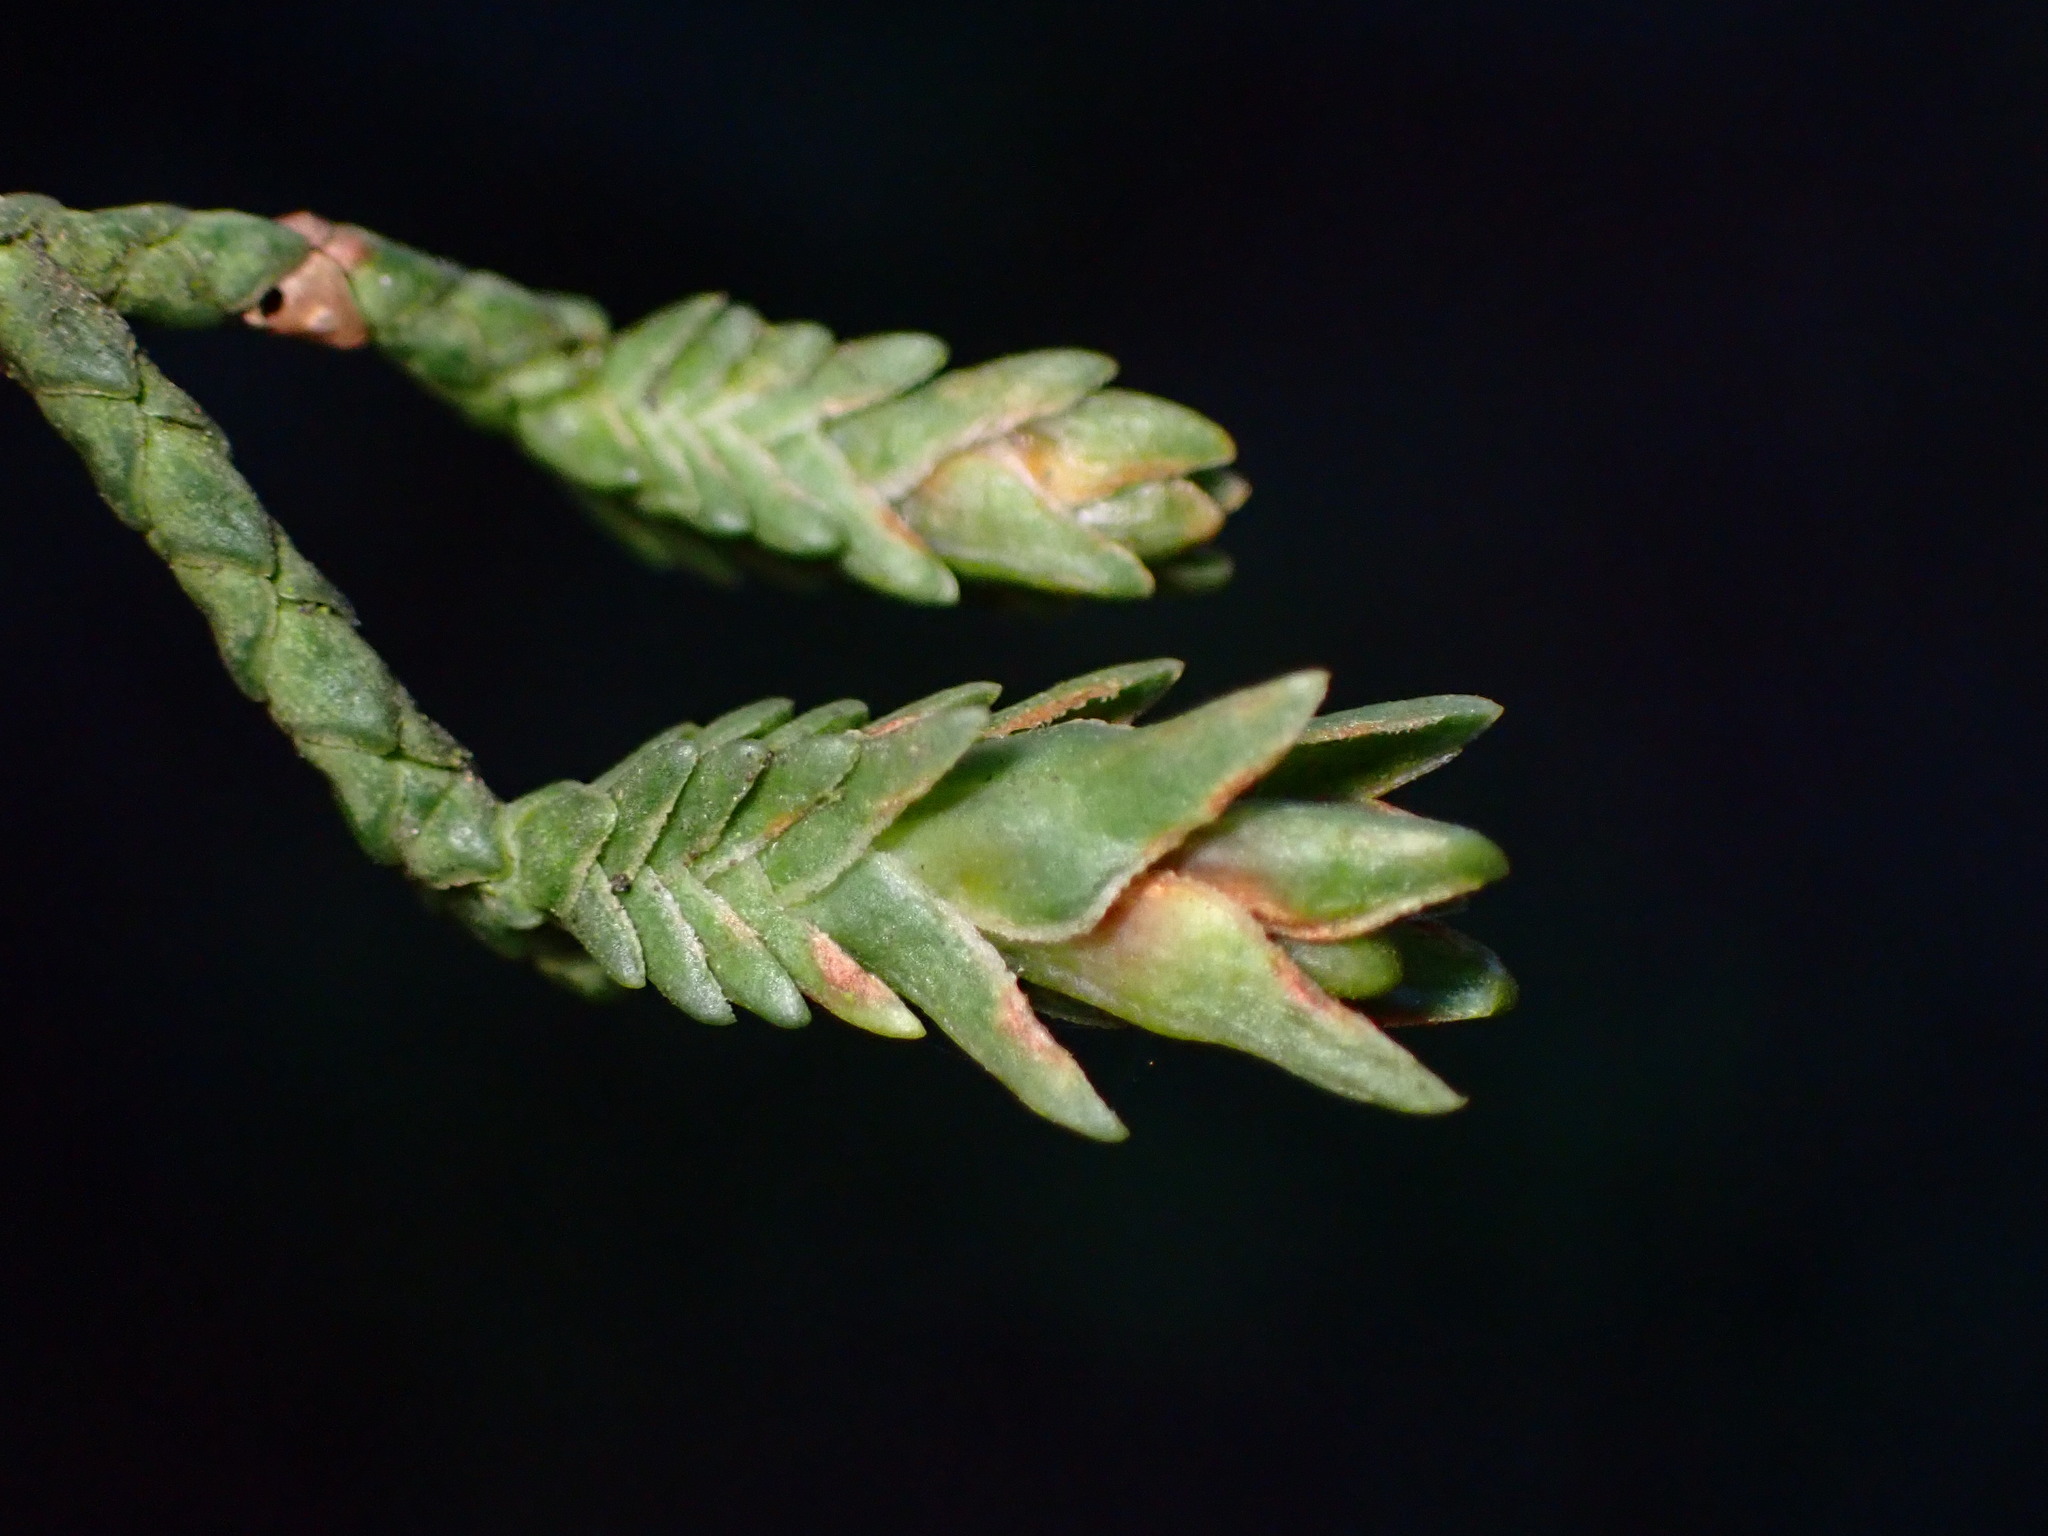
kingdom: Animalia
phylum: Arthropoda
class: Insecta
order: Diptera
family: Cecidomyiidae
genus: Oligotrophus
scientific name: Oligotrophus cupressi
